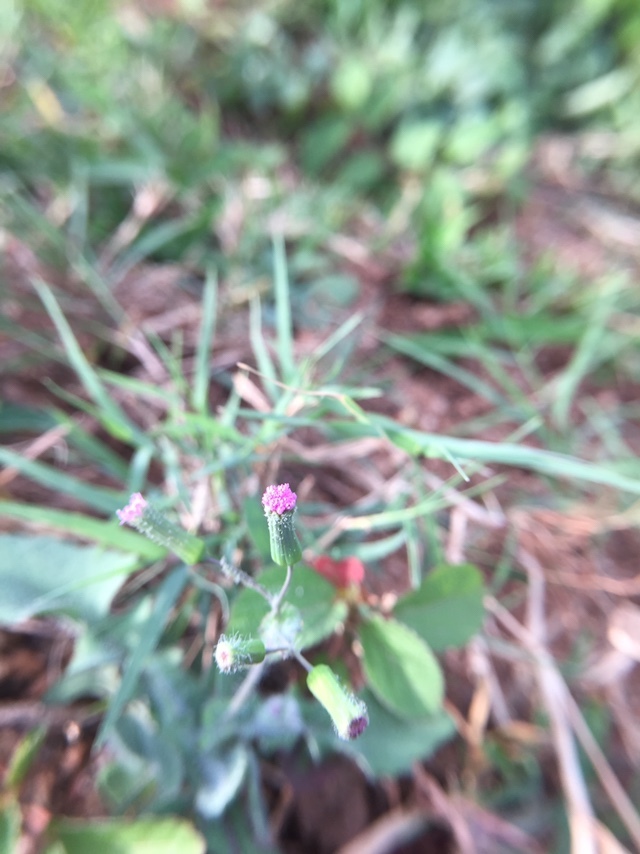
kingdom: Plantae
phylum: Tracheophyta
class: Magnoliopsida
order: Asterales
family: Asteraceae
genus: Emilia
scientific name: Emilia javanica
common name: Tassel-flower
